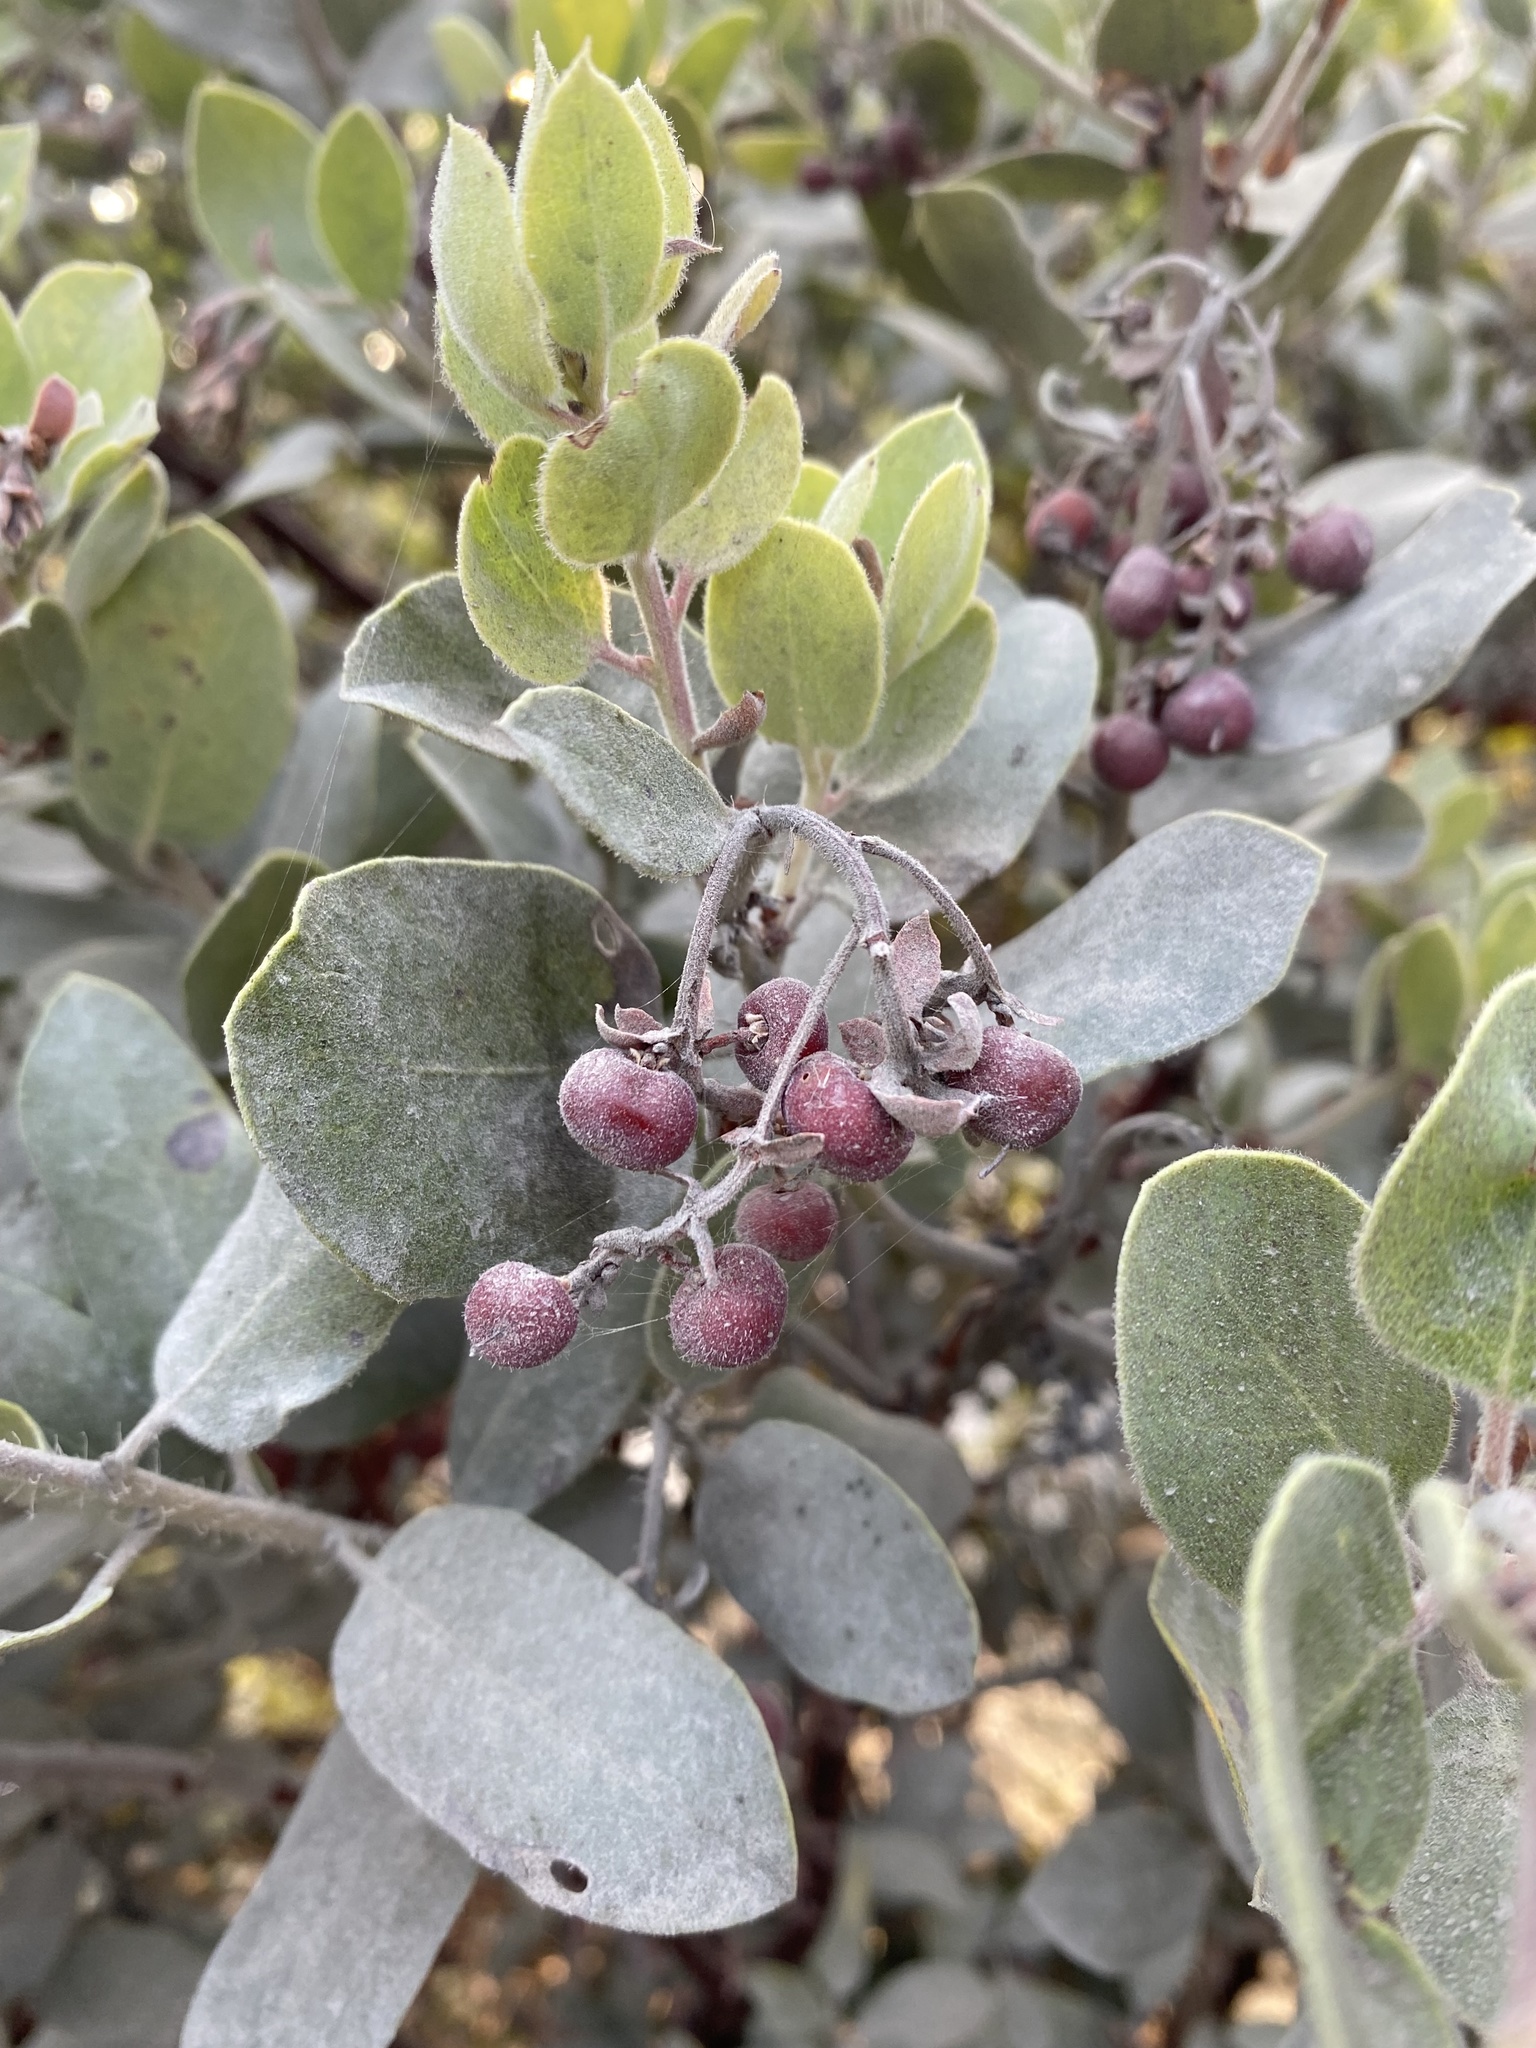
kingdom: Plantae
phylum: Tracheophyta
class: Magnoliopsida
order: Ericales
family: Ericaceae
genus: Arctostaphylos
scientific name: Arctostaphylos crustacea
